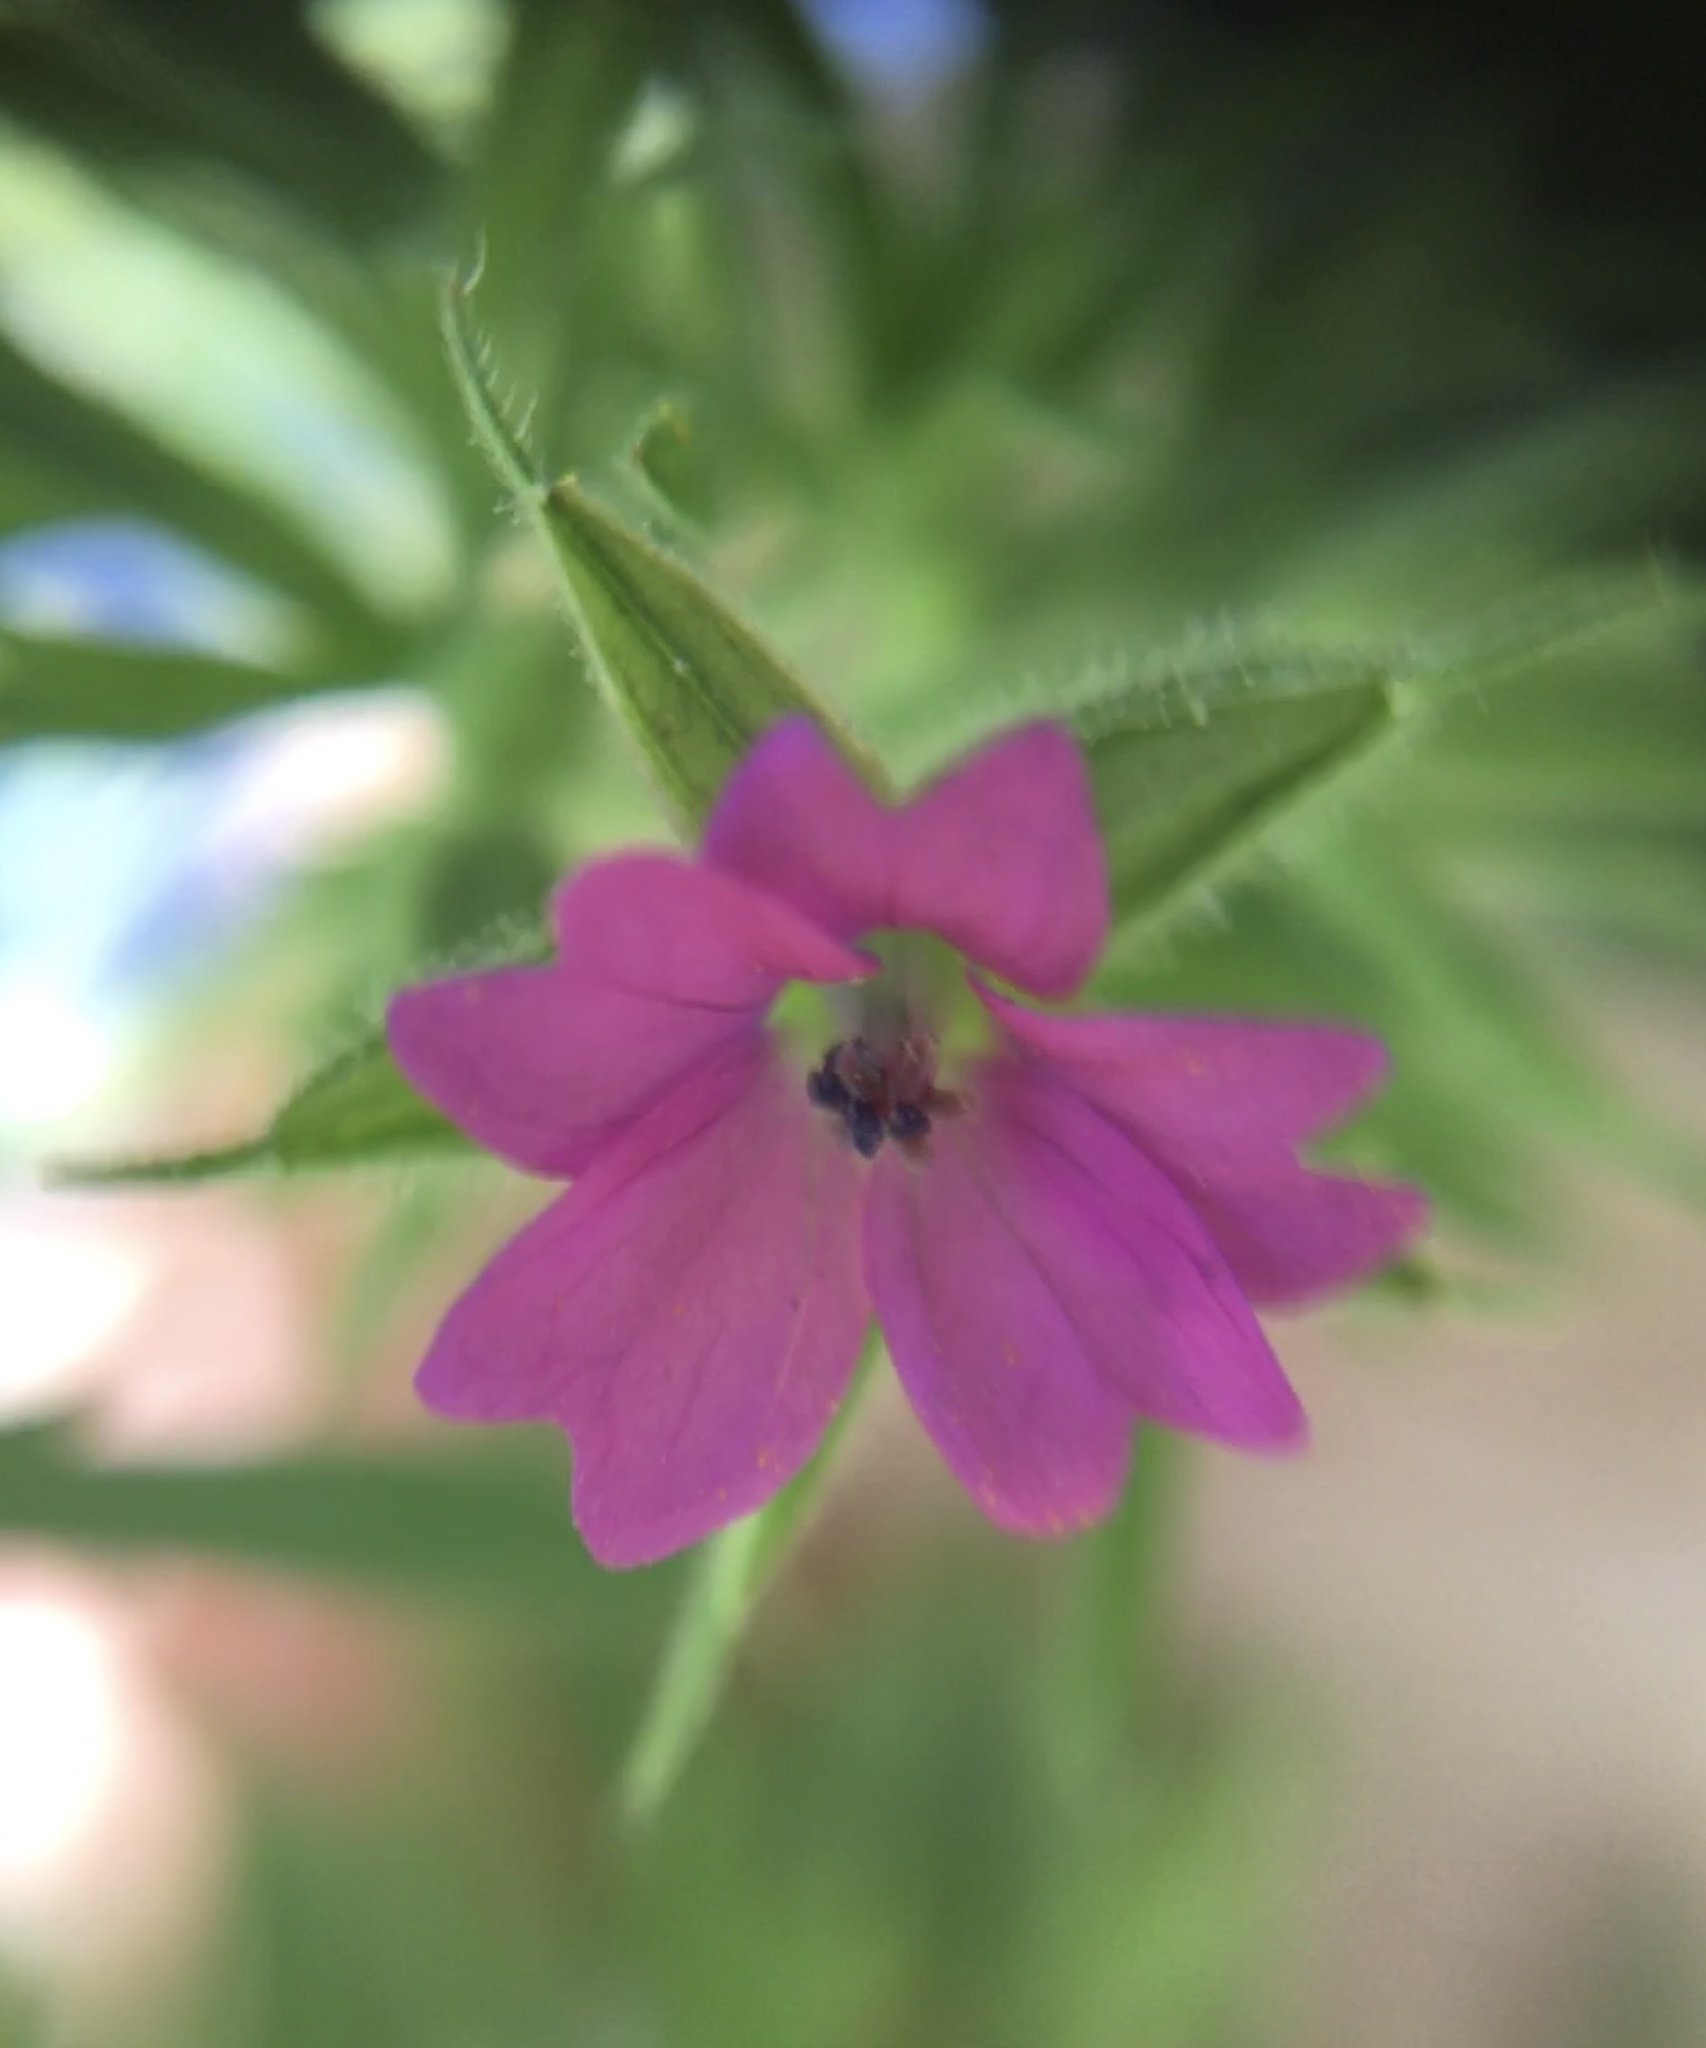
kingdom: Plantae
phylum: Tracheophyta
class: Magnoliopsida
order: Geraniales
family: Geraniaceae
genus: Geranium
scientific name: Geranium dissectum
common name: Cut-leaved crane's-bill
